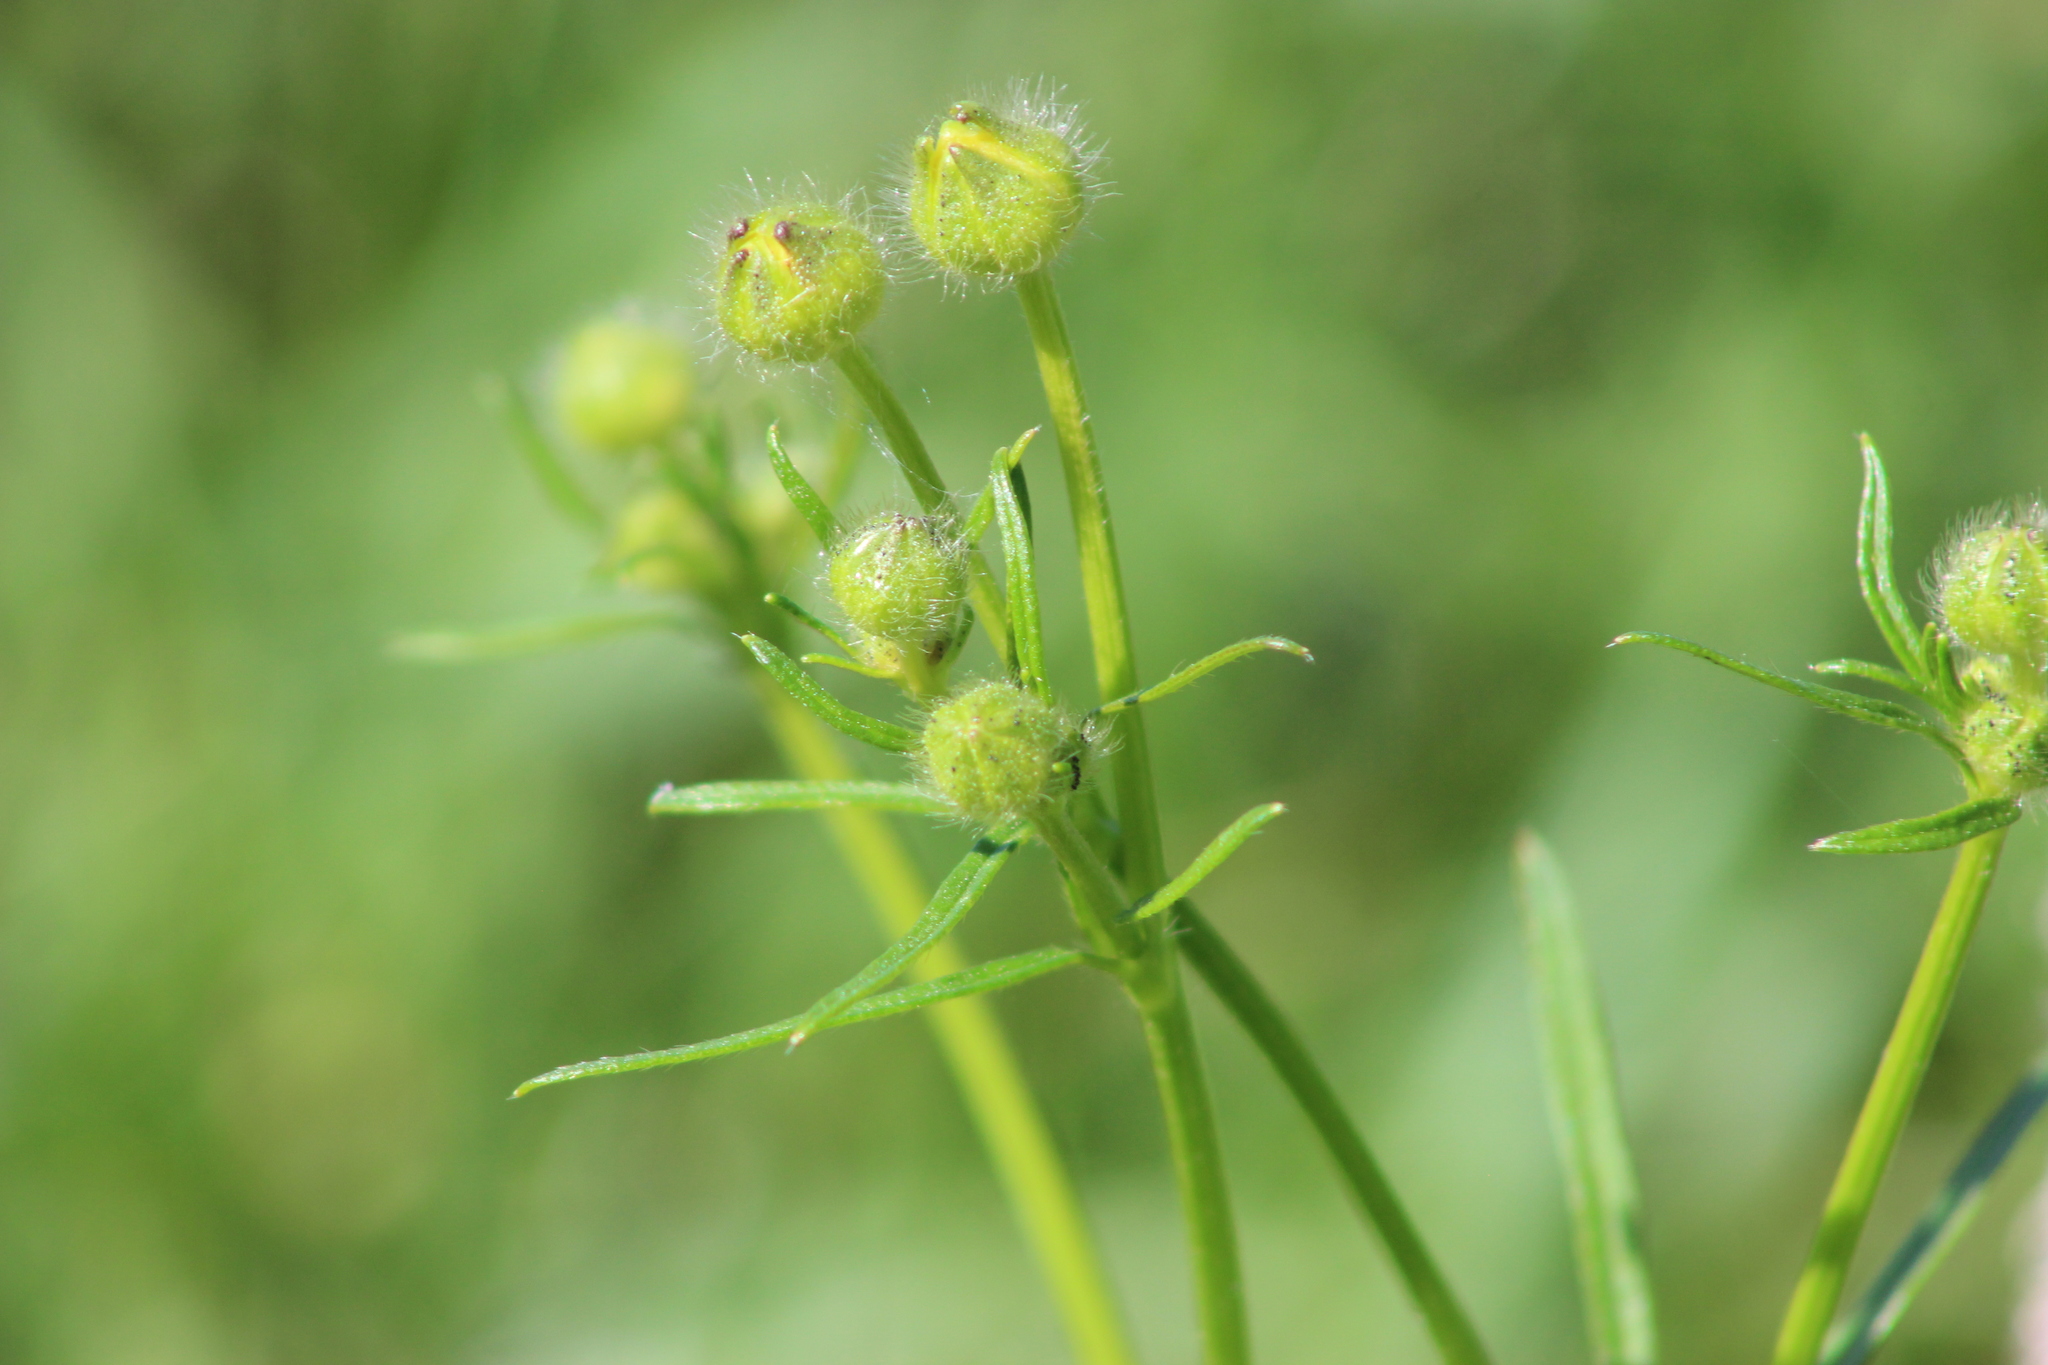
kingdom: Plantae
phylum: Tracheophyta
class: Magnoliopsida
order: Ranunculales
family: Ranunculaceae
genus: Ranunculus
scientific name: Ranunculus polyanthemos
